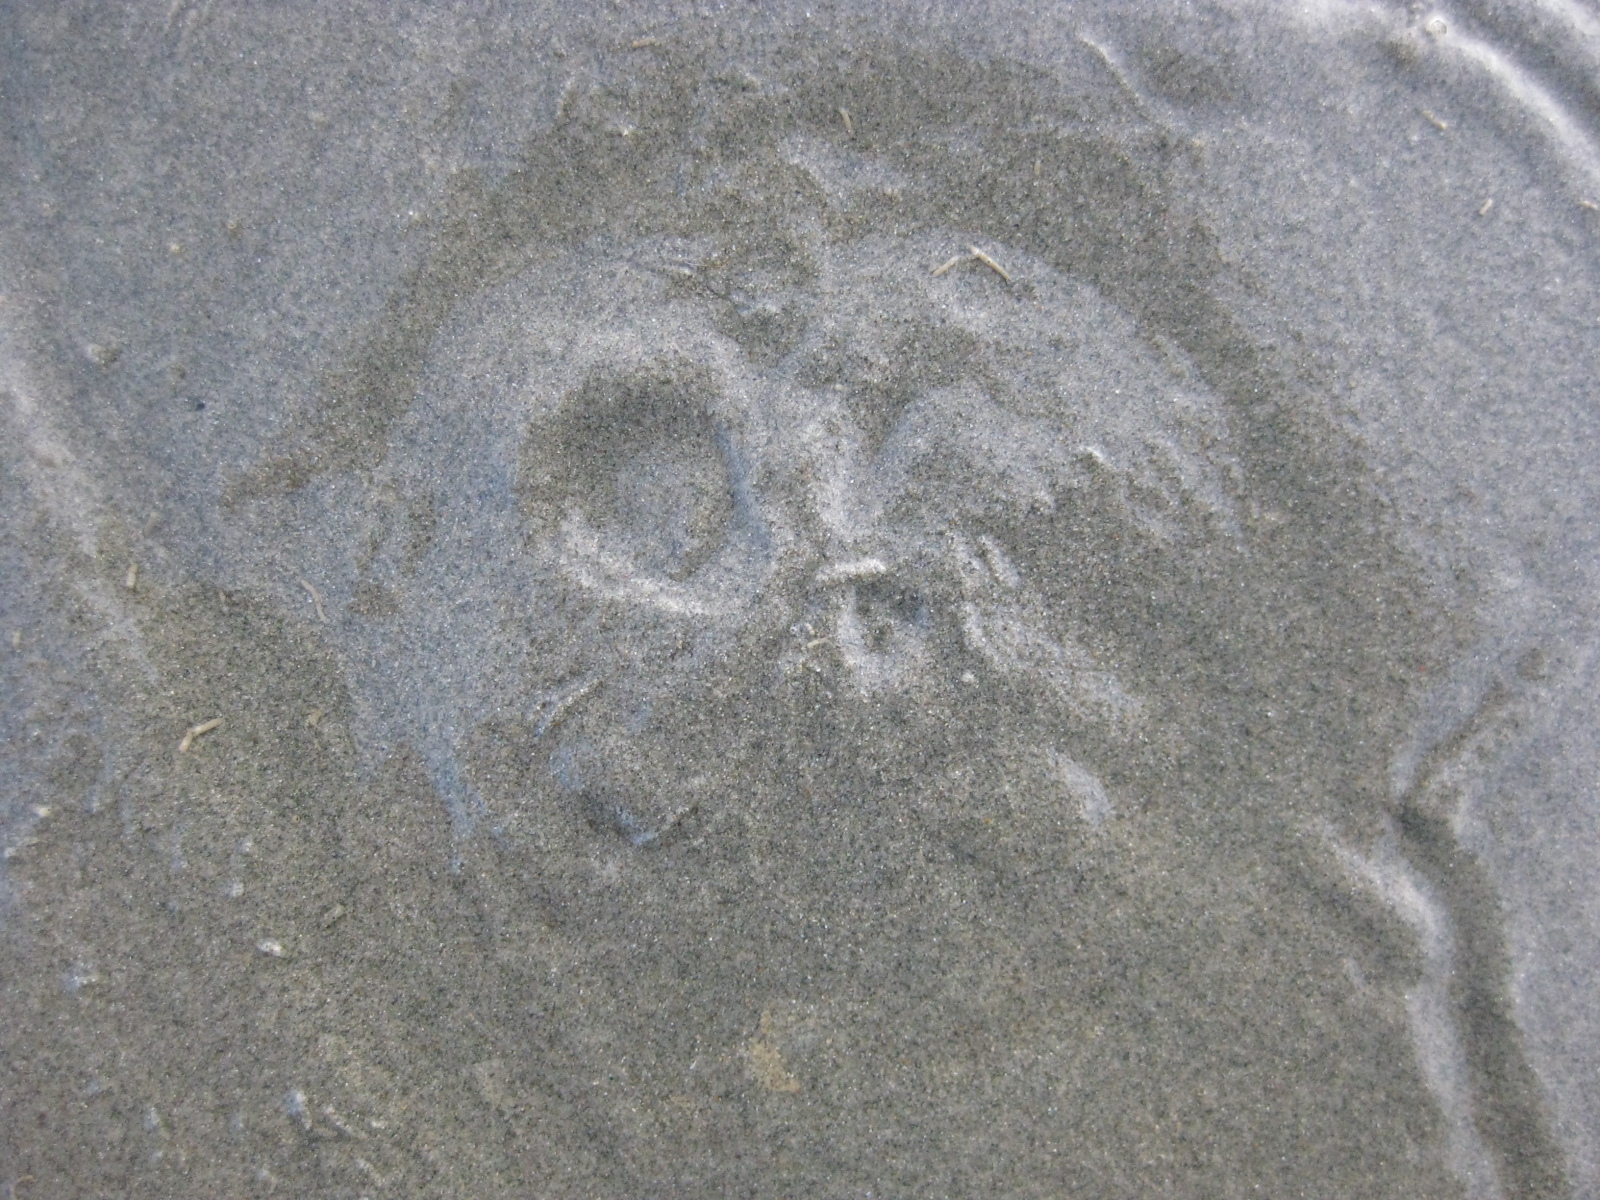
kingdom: Animalia
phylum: Echinodermata
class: Echinoidea
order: Clypeasteroida
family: Clypeasteridae
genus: Fellaster
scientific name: Fellaster zelandiae
